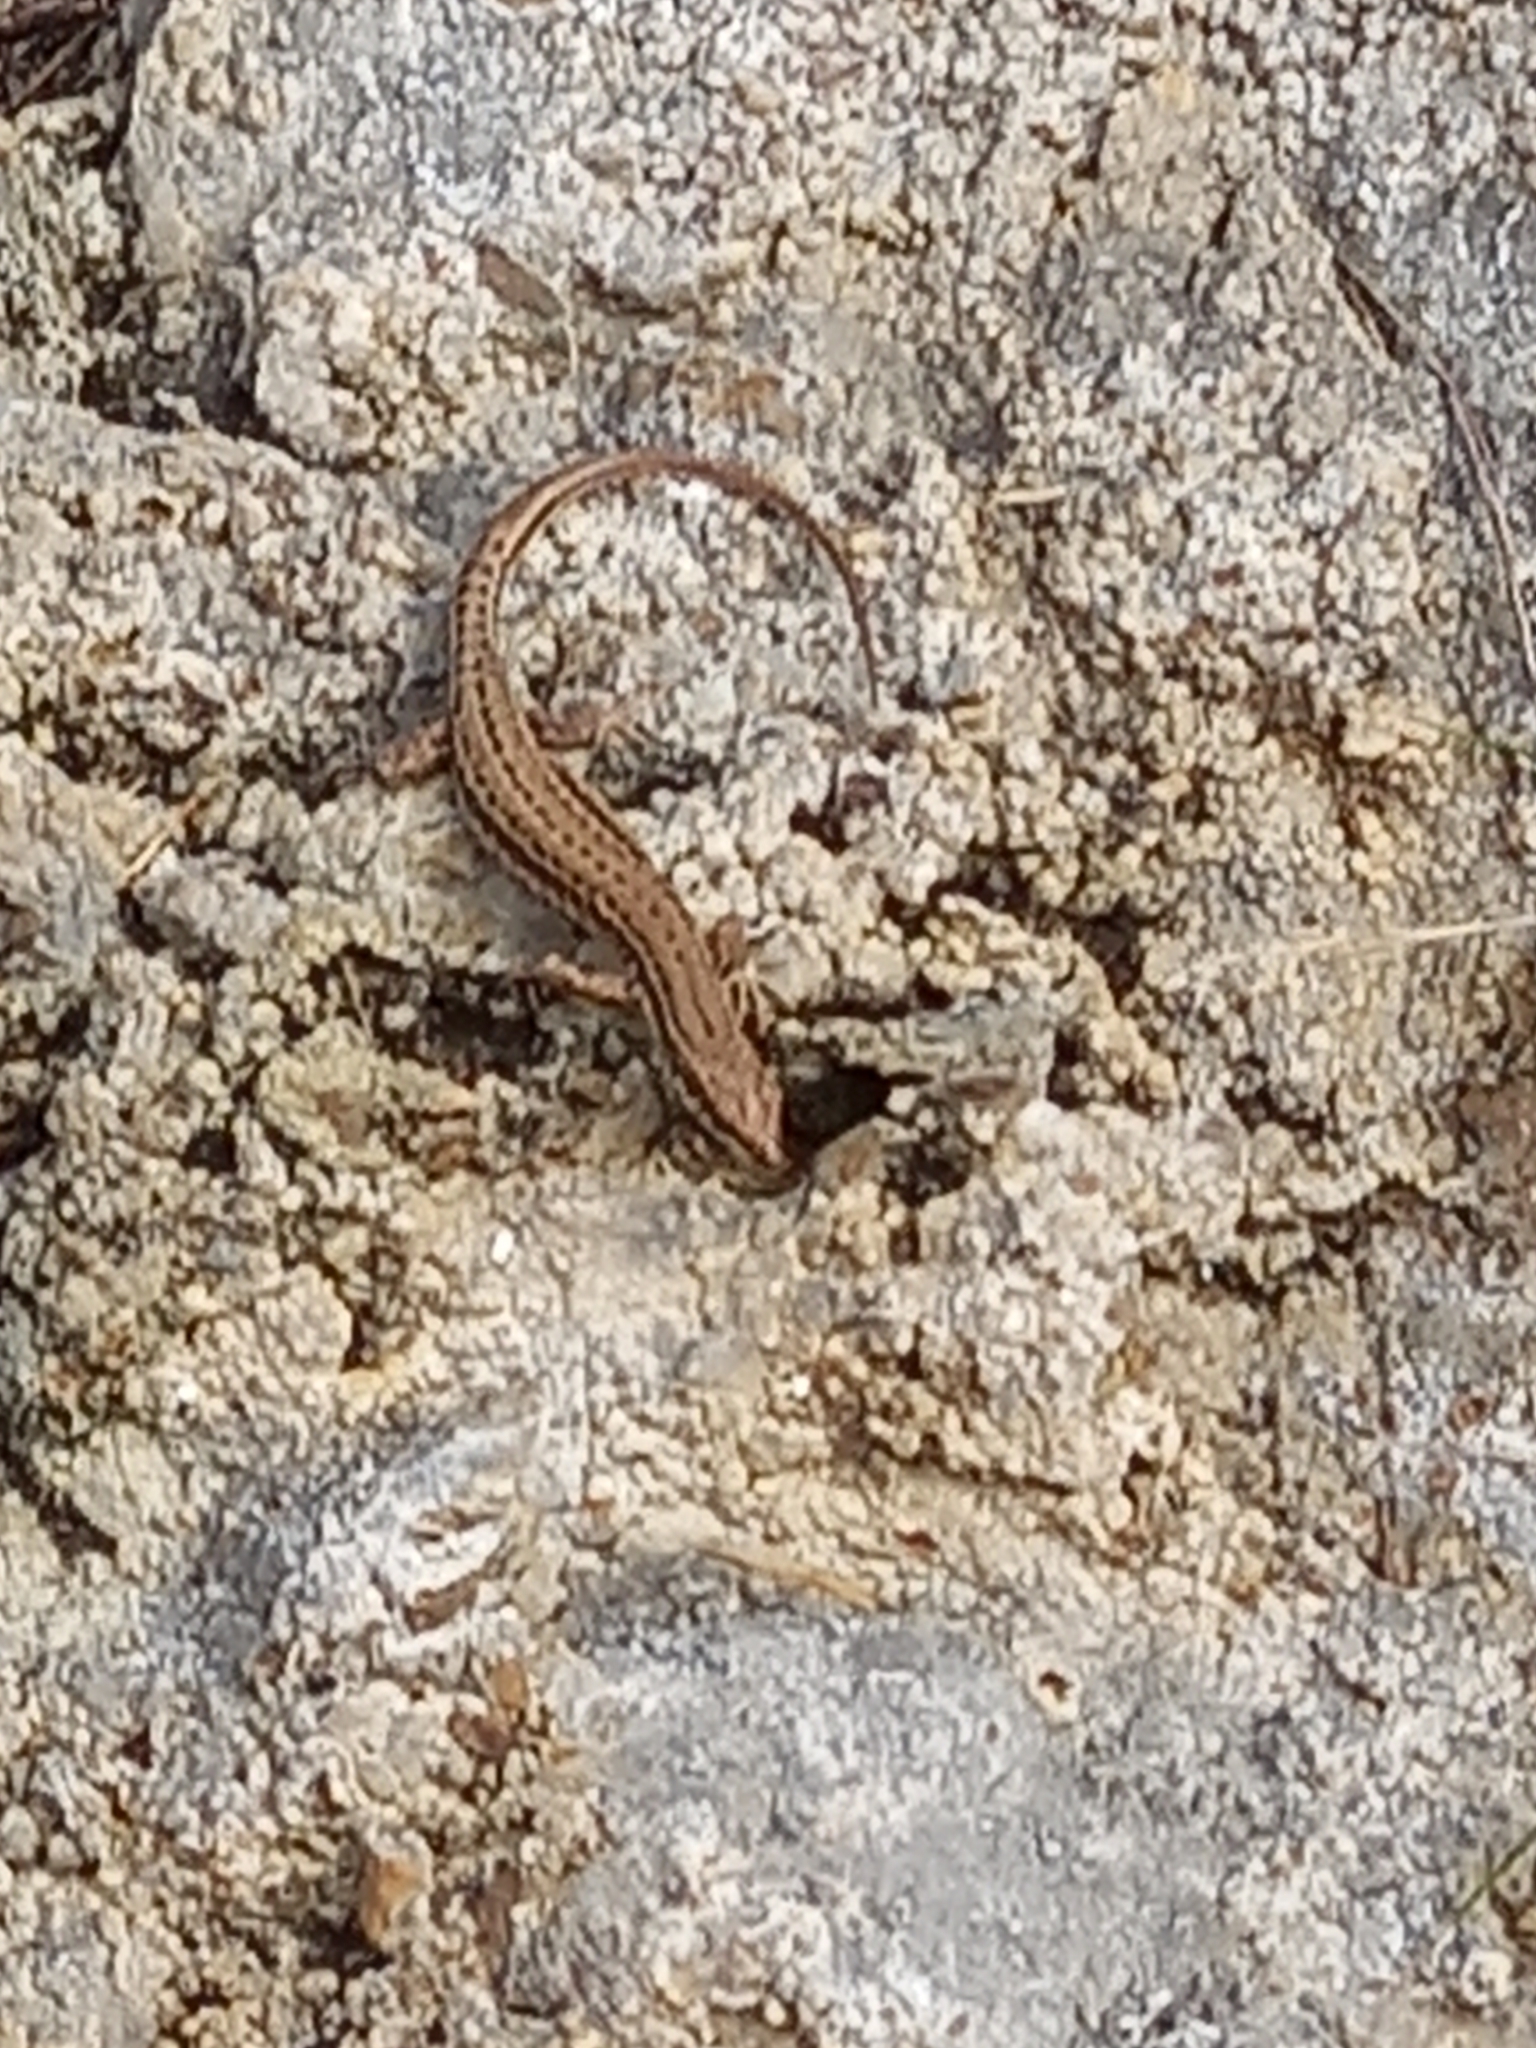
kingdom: Animalia
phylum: Chordata
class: Squamata
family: Lacertidae
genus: Podarcis
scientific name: Podarcis liolepis
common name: Catalonian wall lizard
